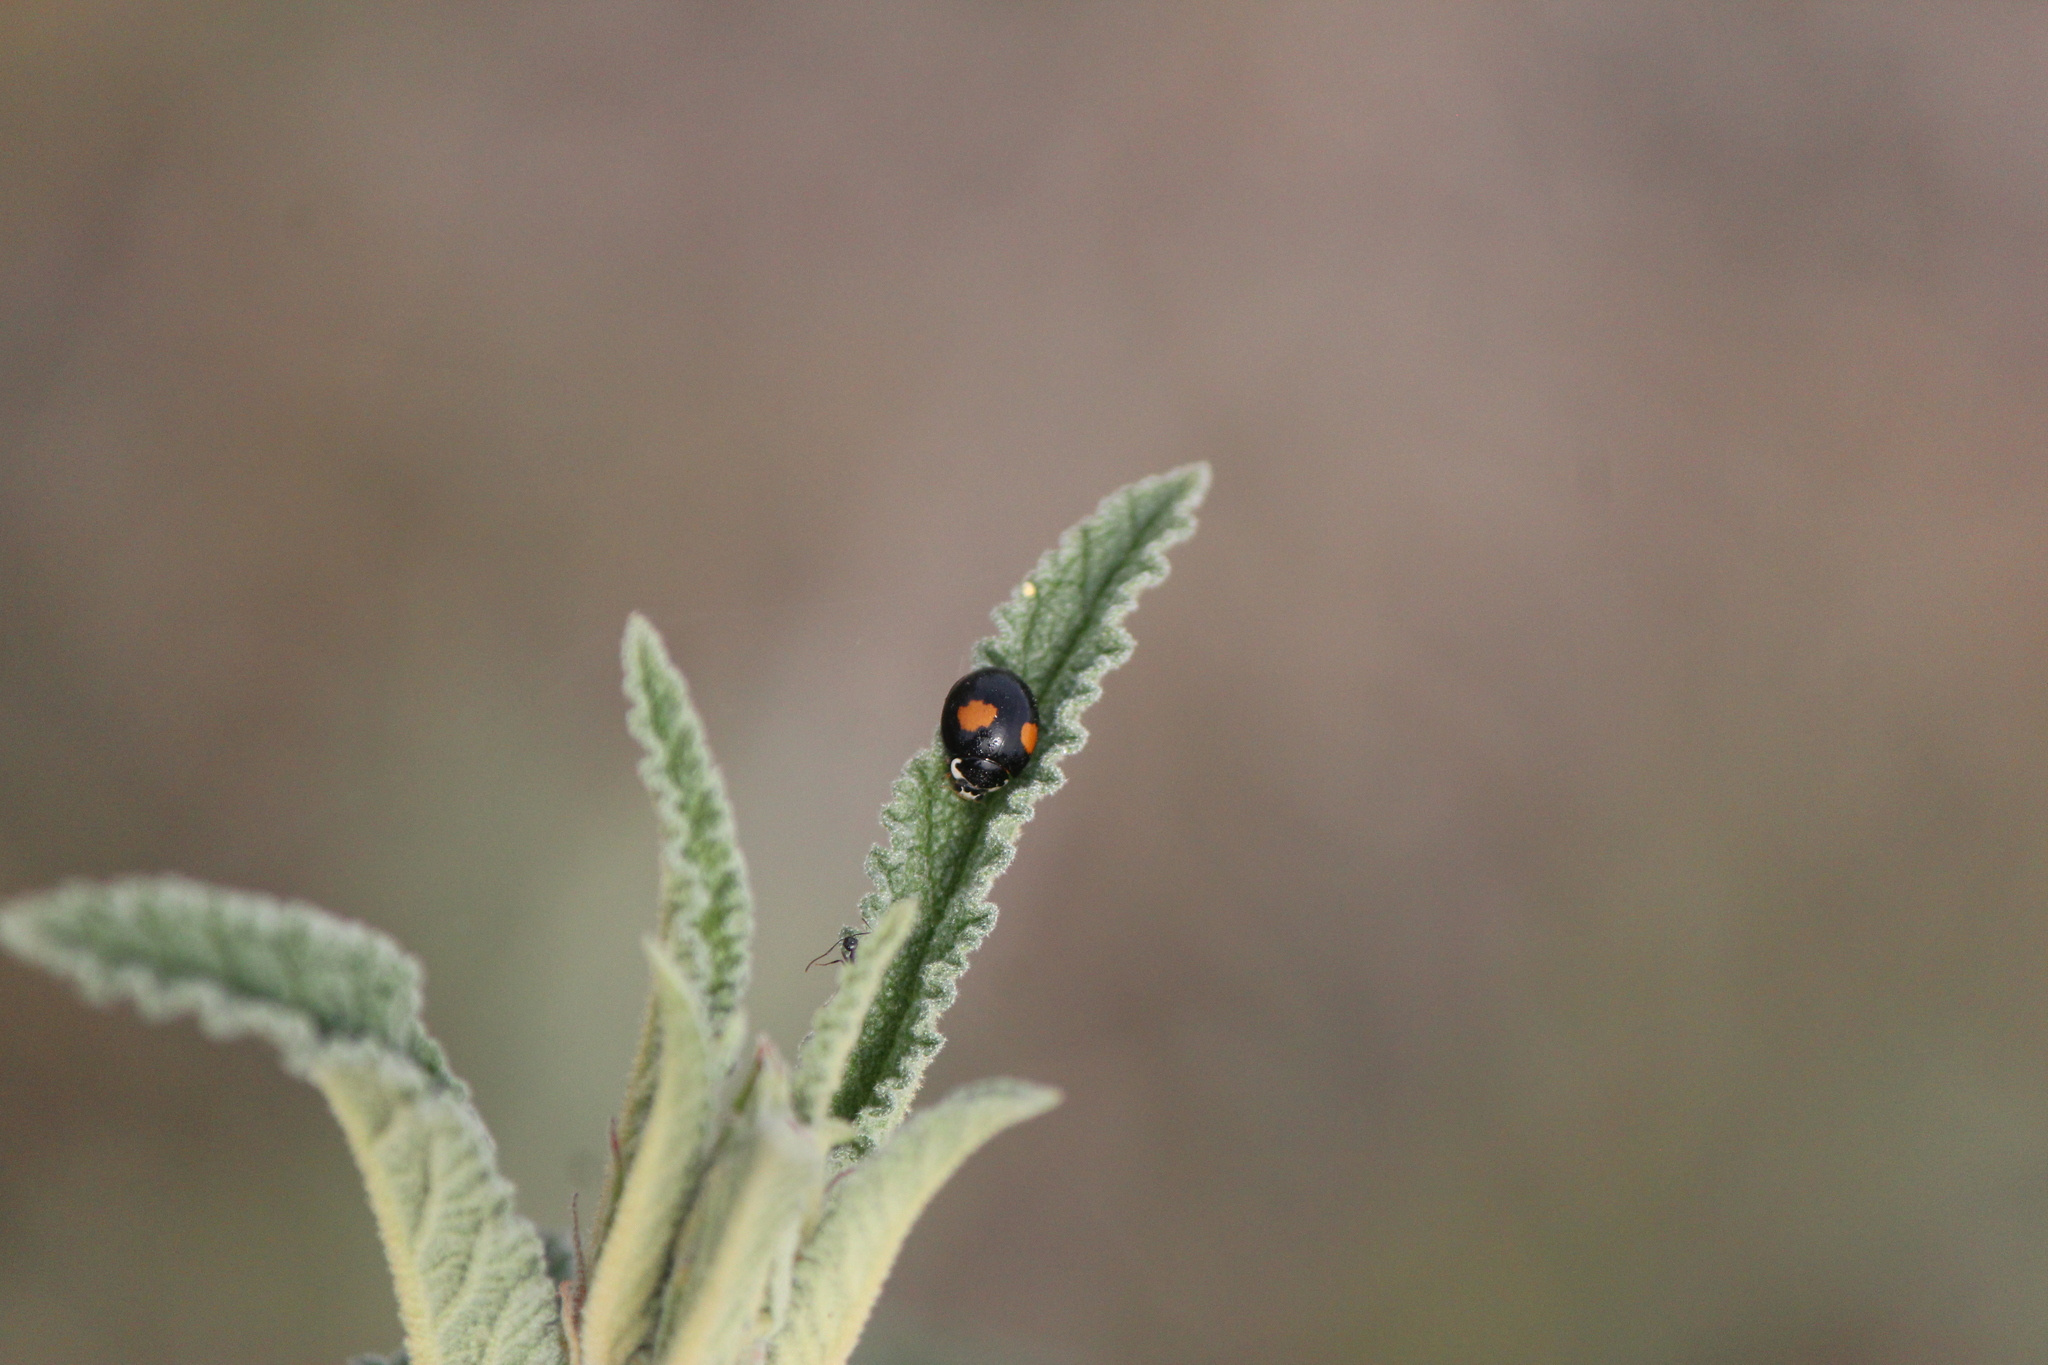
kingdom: Animalia
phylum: Arthropoda
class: Insecta
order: Coleoptera
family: Coccinellidae
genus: Olla
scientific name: Olla v-nigrum
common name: Ashy gray lady beetle
